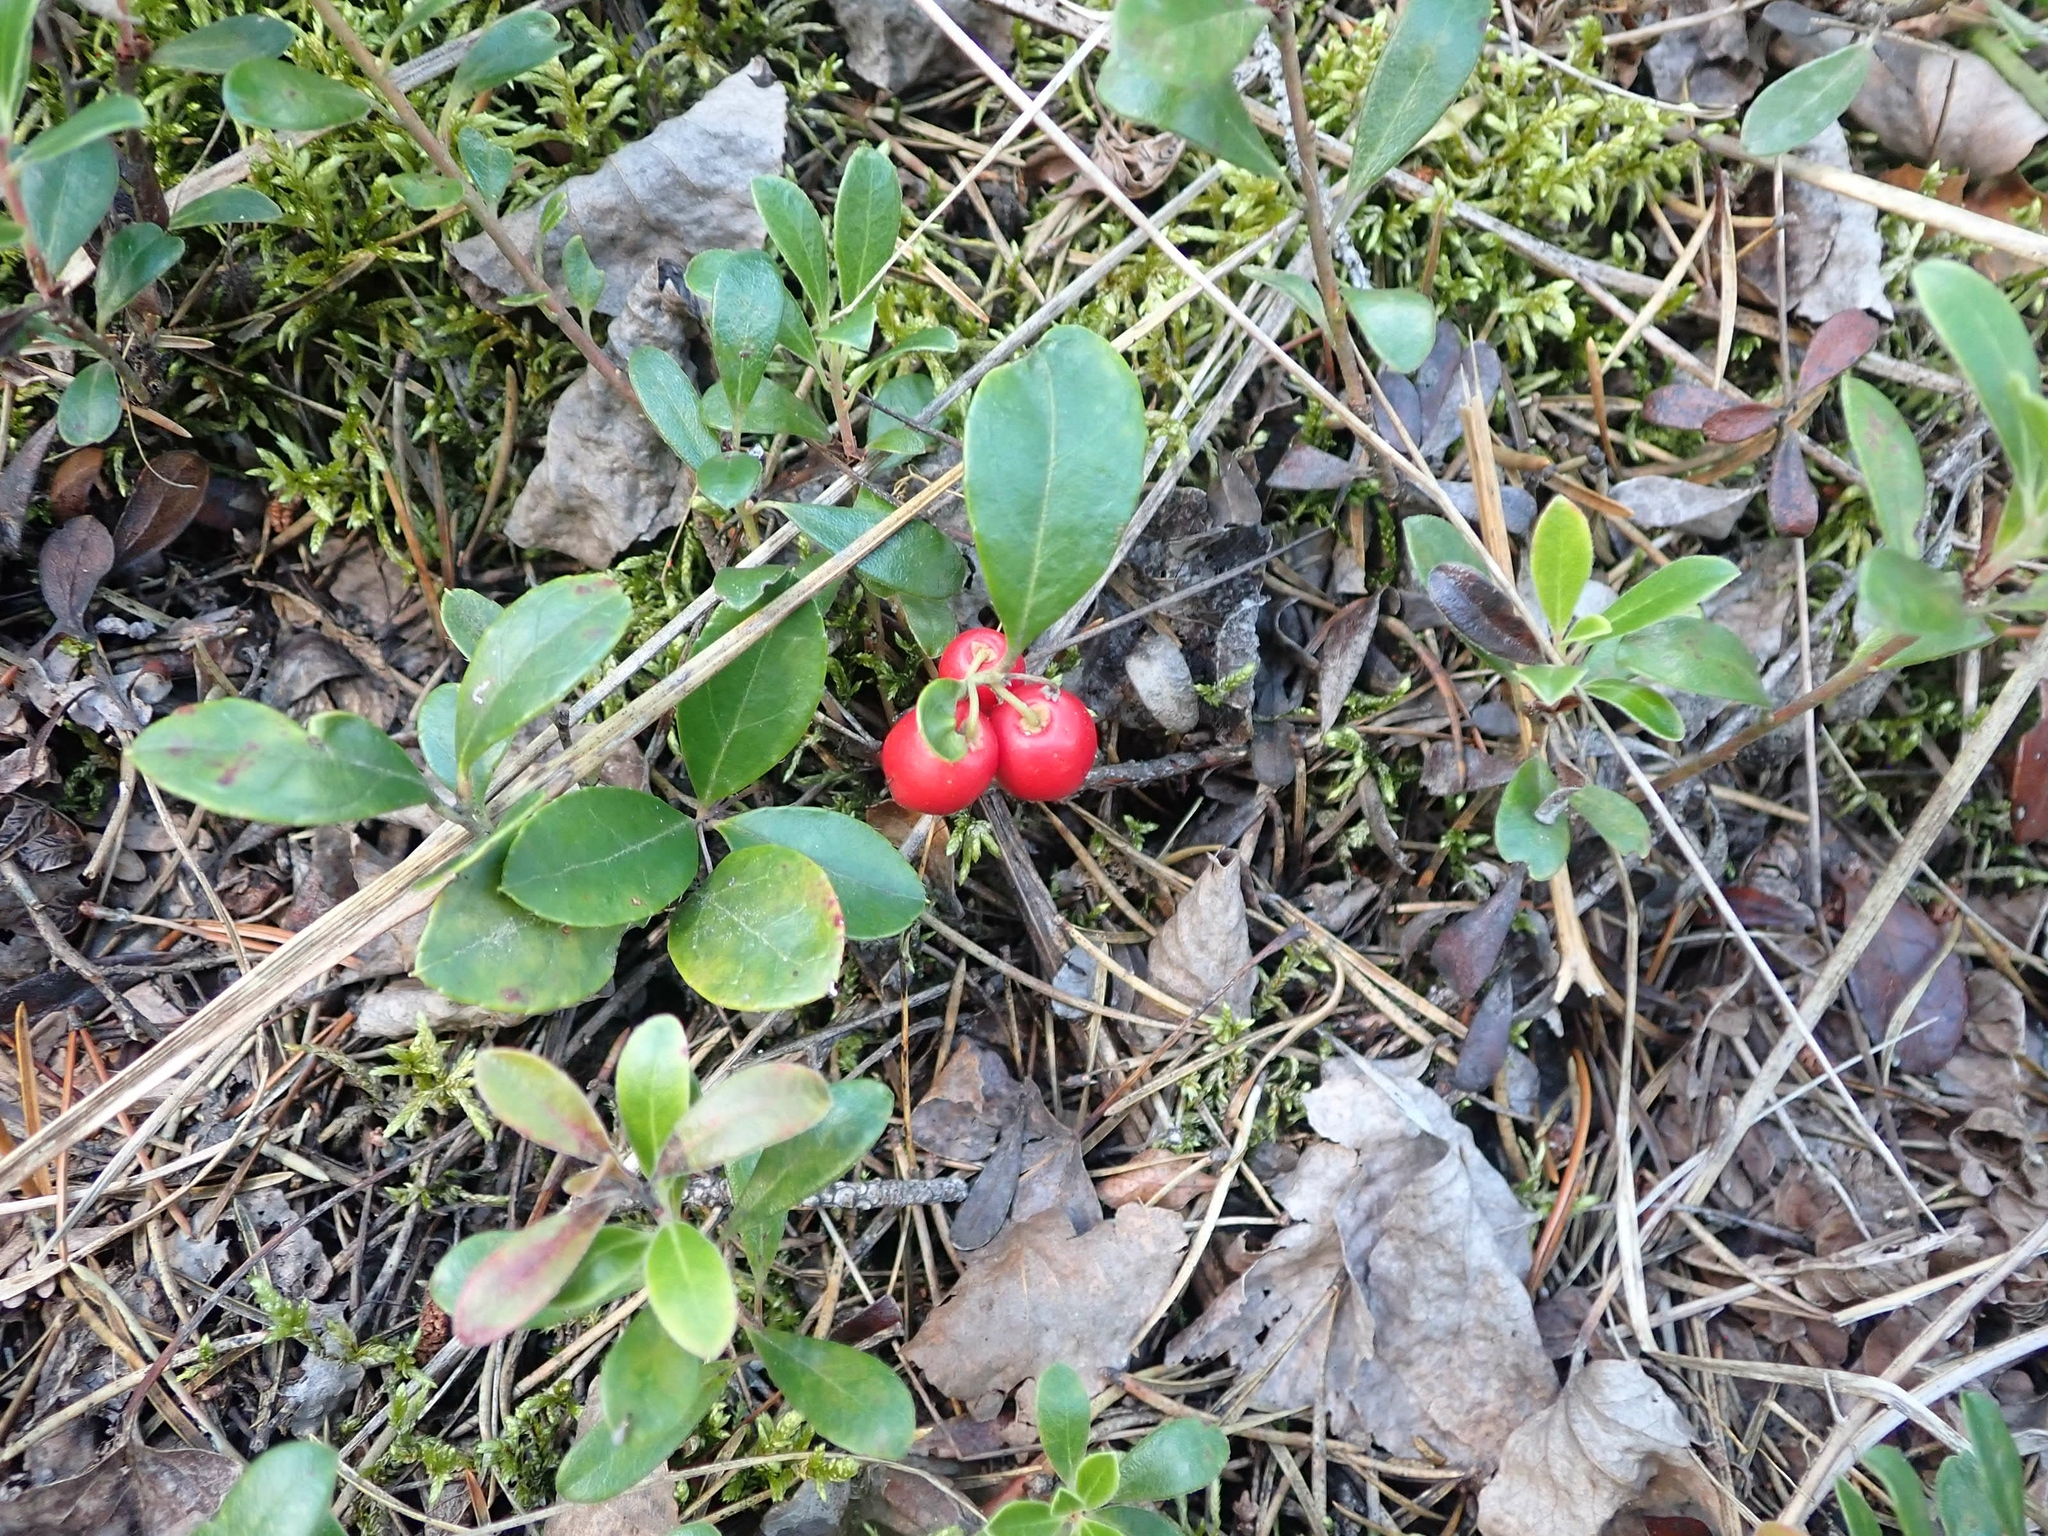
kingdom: Plantae
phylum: Tracheophyta
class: Magnoliopsida
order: Ericales
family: Ericaceae
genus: Gaultheria
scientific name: Gaultheria procumbens
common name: Checkerberry
